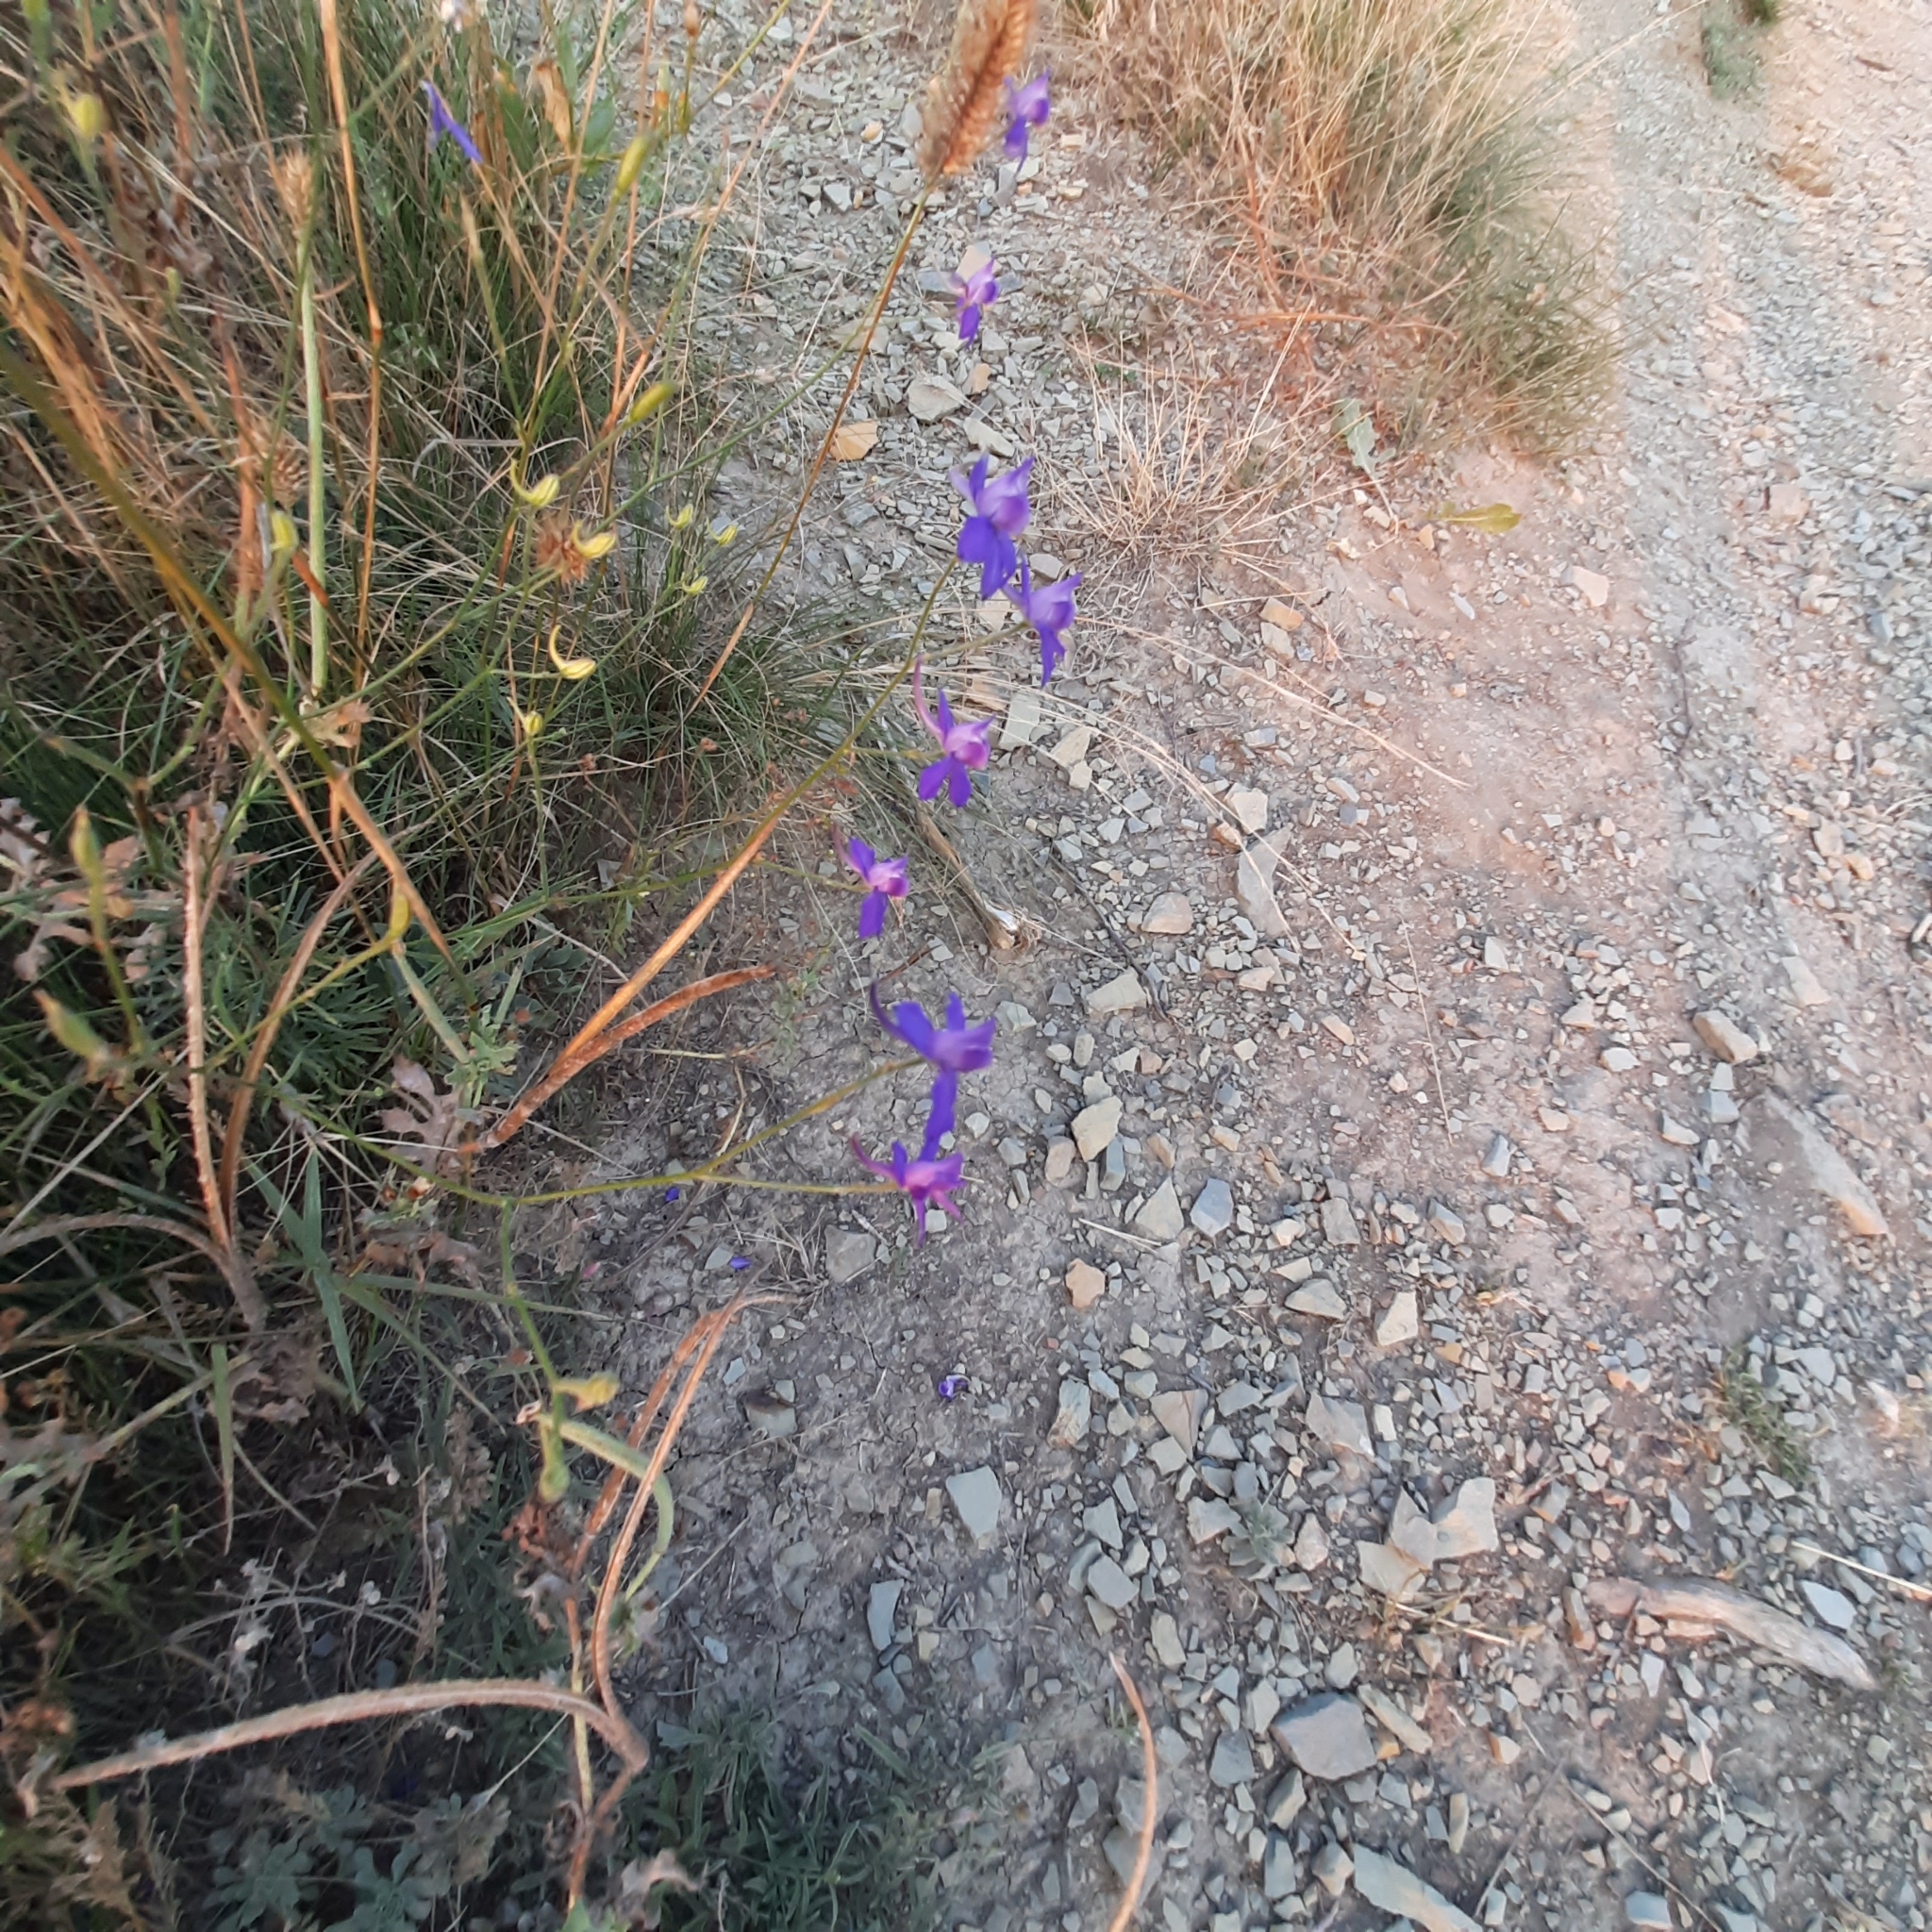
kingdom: Plantae
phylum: Tracheophyta
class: Magnoliopsida
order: Ranunculales
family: Ranunculaceae
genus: Delphinium
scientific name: Delphinium consolida
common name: Branching larkspur
